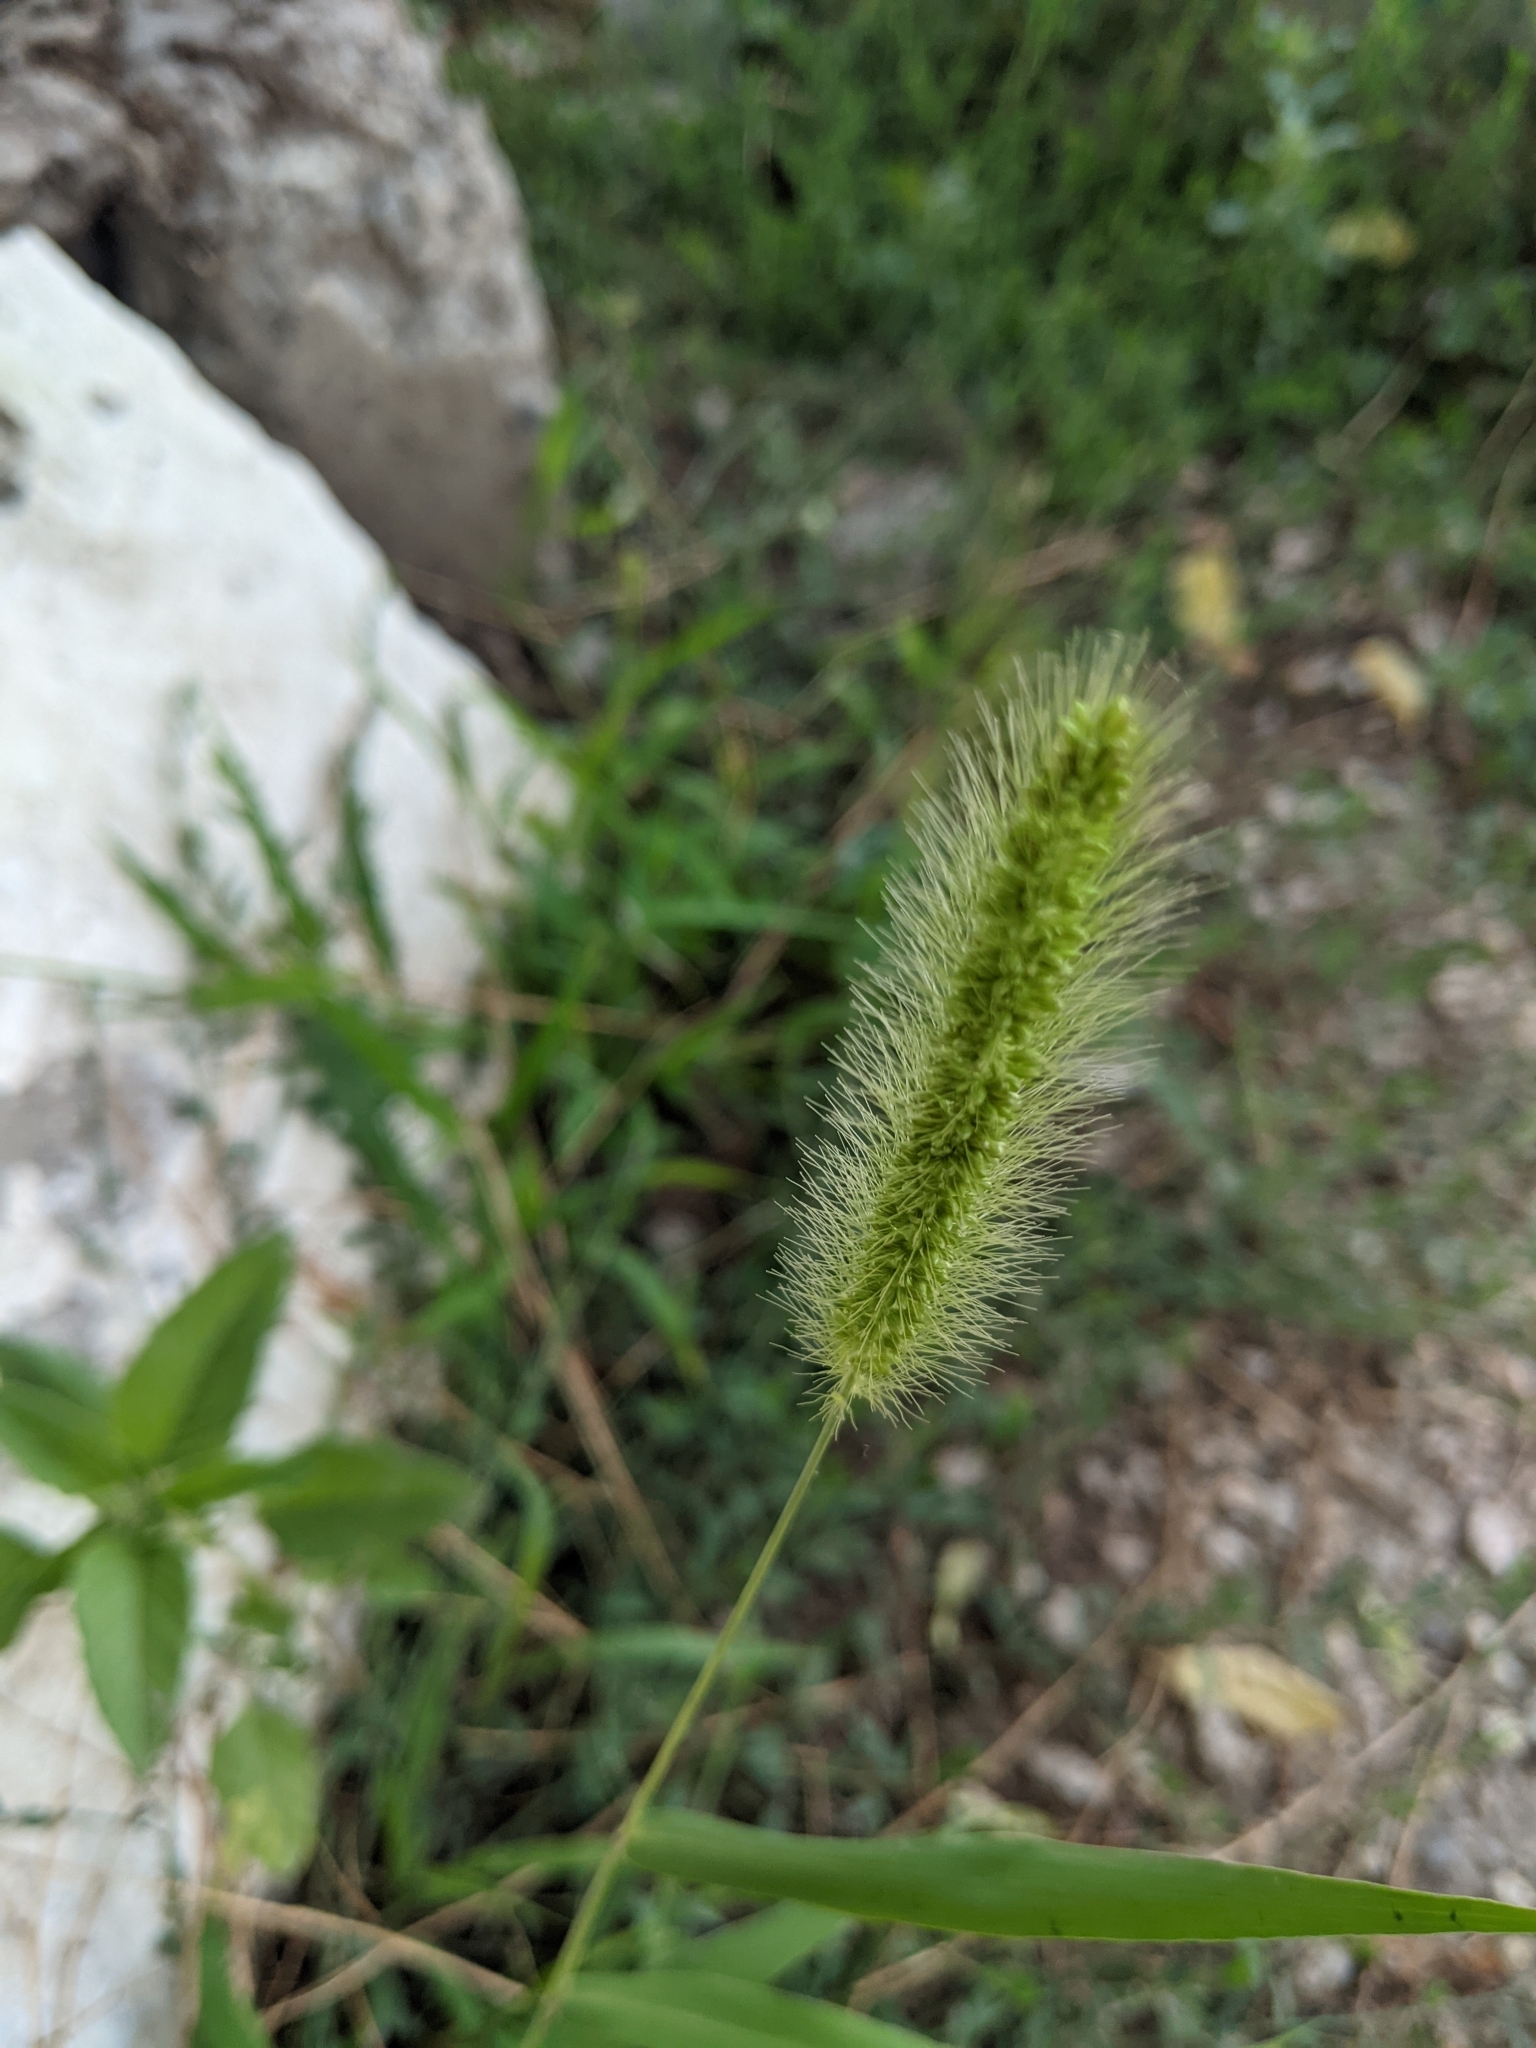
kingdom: Plantae
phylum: Tracheophyta
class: Liliopsida
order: Poales
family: Poaceae
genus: Setaria
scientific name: Setaria viridis
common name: Green bristlegrass
